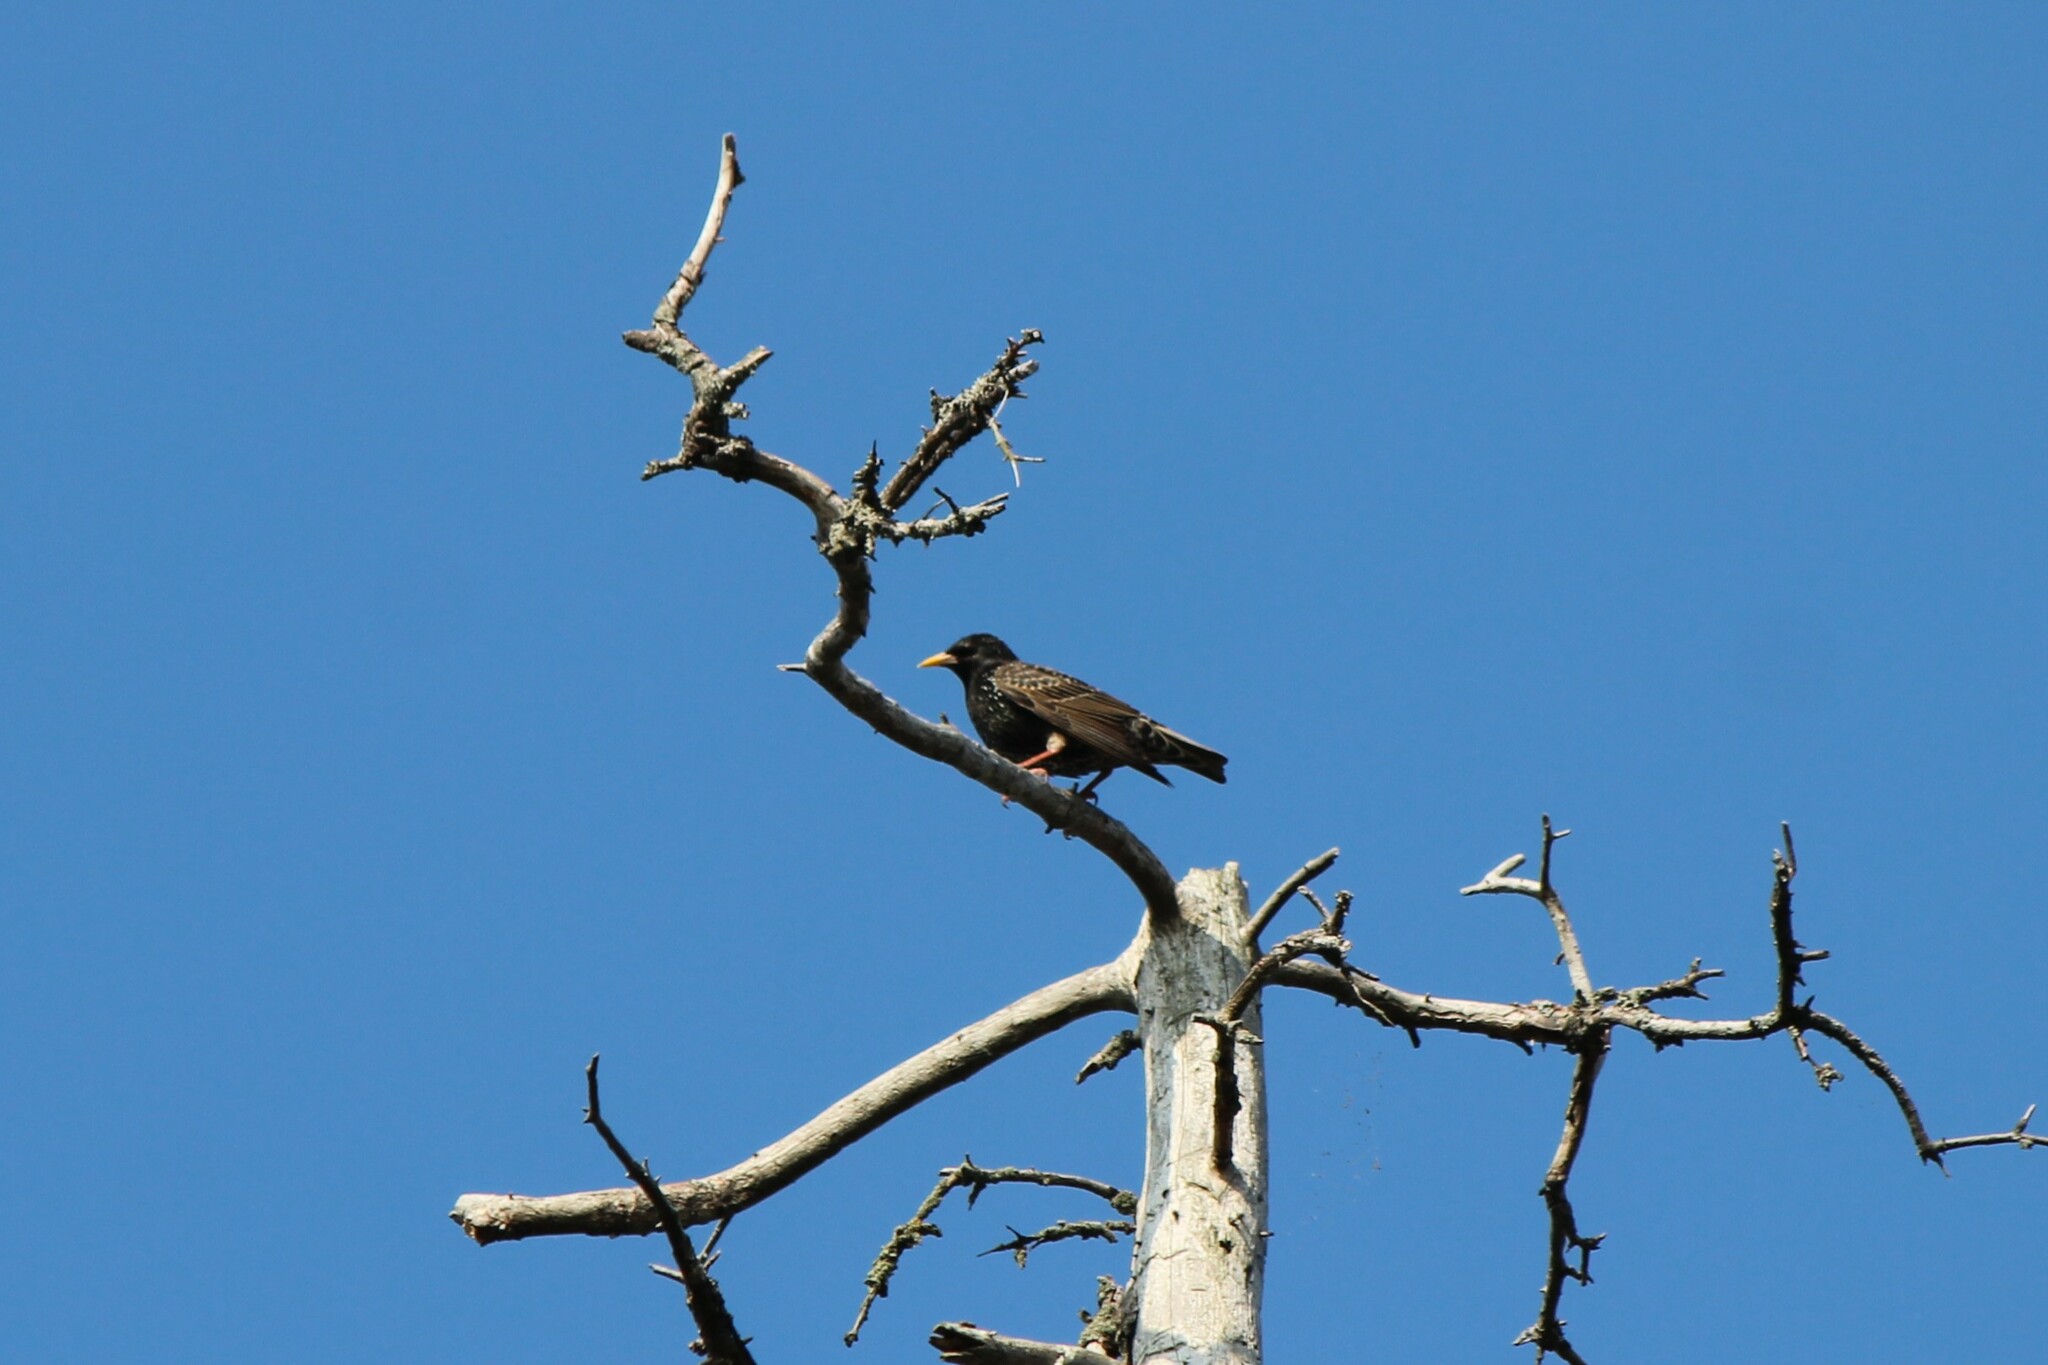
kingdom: Animalia
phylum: Chordata
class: Aves
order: Passeriformes
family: Sturnidae
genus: Sturnus
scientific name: Sturnus vulgaris
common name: Common starling
